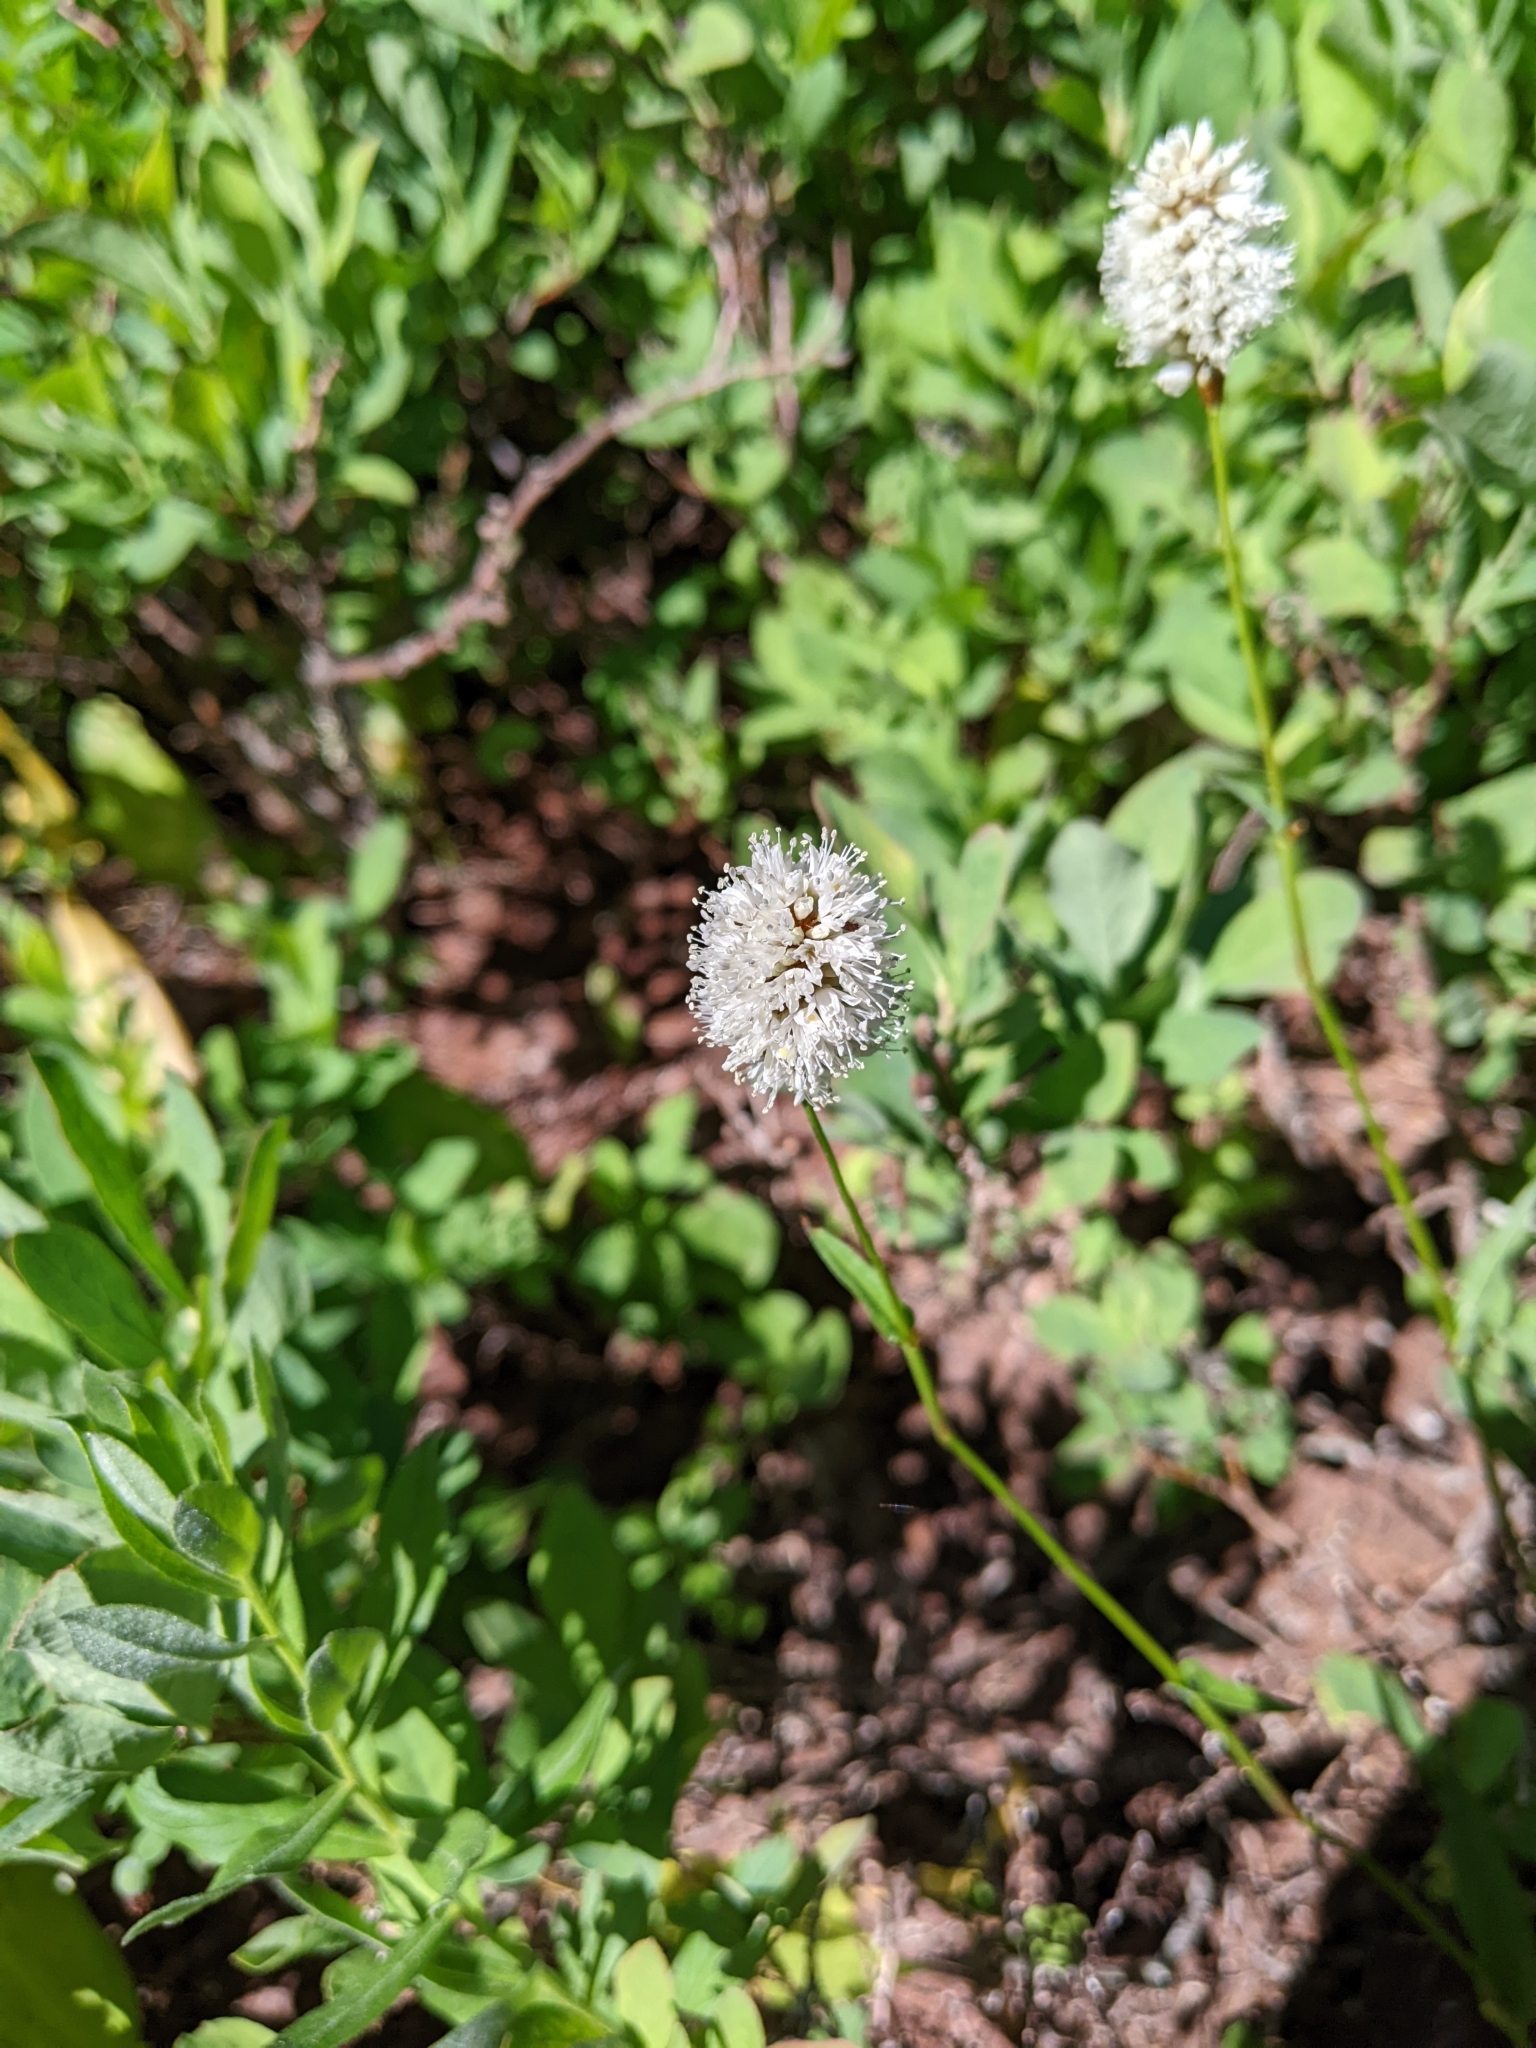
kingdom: Plantae
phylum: Tracheophyta
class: Magnoliopsida
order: Caryophyllales
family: Polygonaceae
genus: Bistorta
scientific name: Bistorta bistortoides
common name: American bistort
